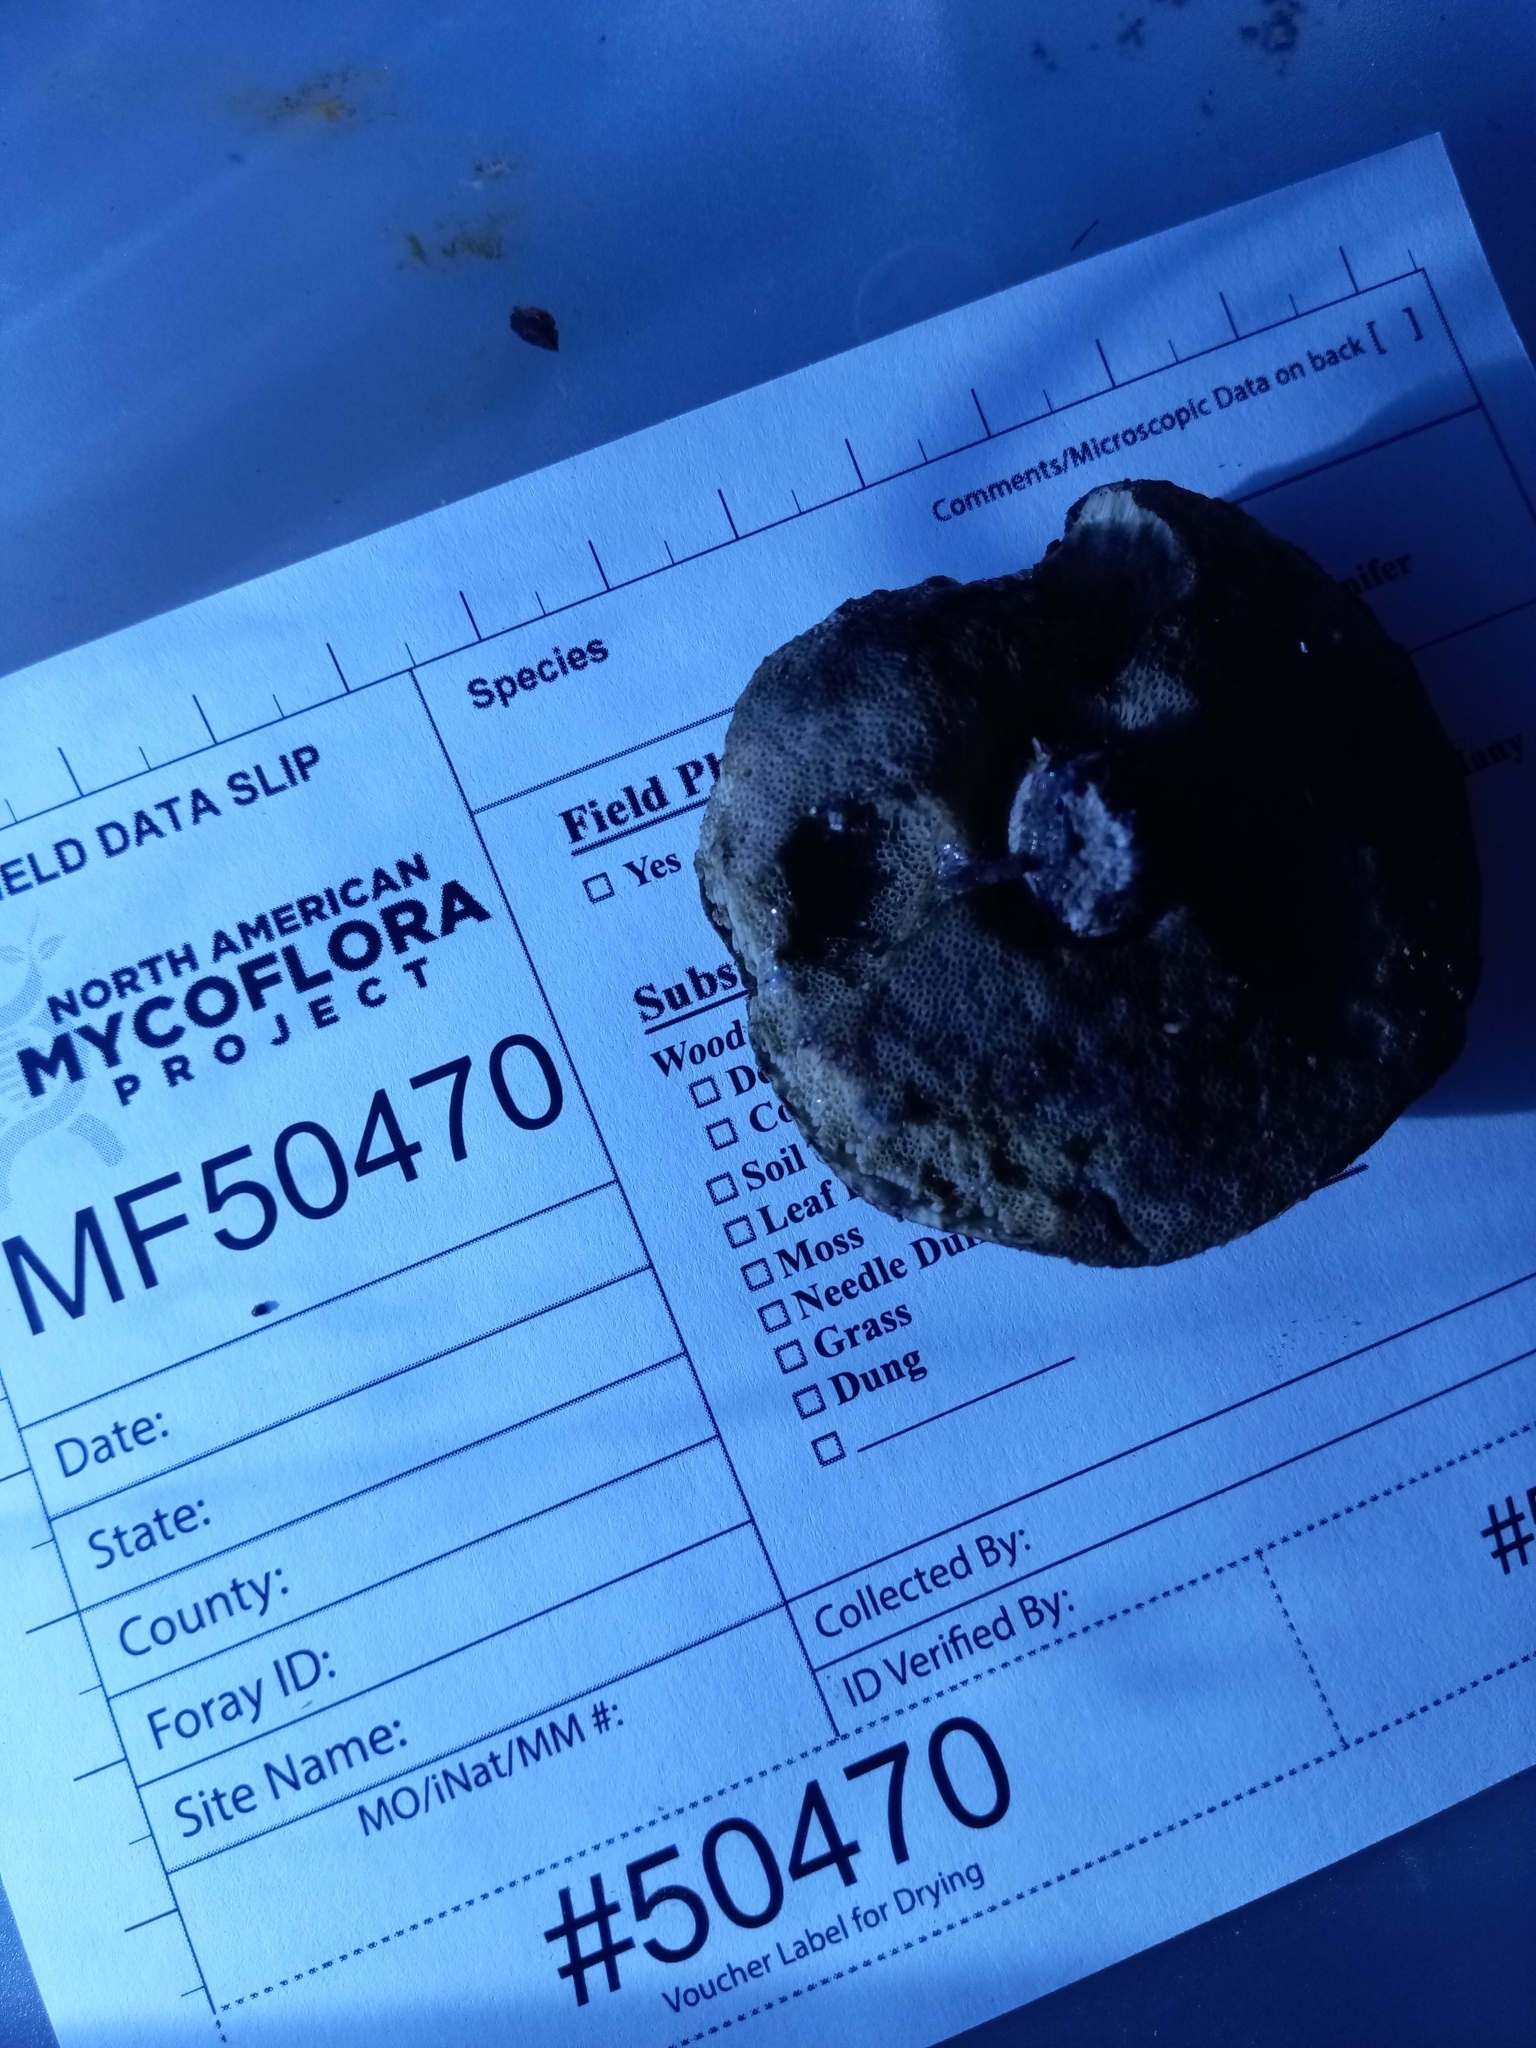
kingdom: Fungi
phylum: Basidiomycota
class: Agaricomycetes
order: Boletales
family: Boletaceae
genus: Leccinellum
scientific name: Leccinellum quercophilum
